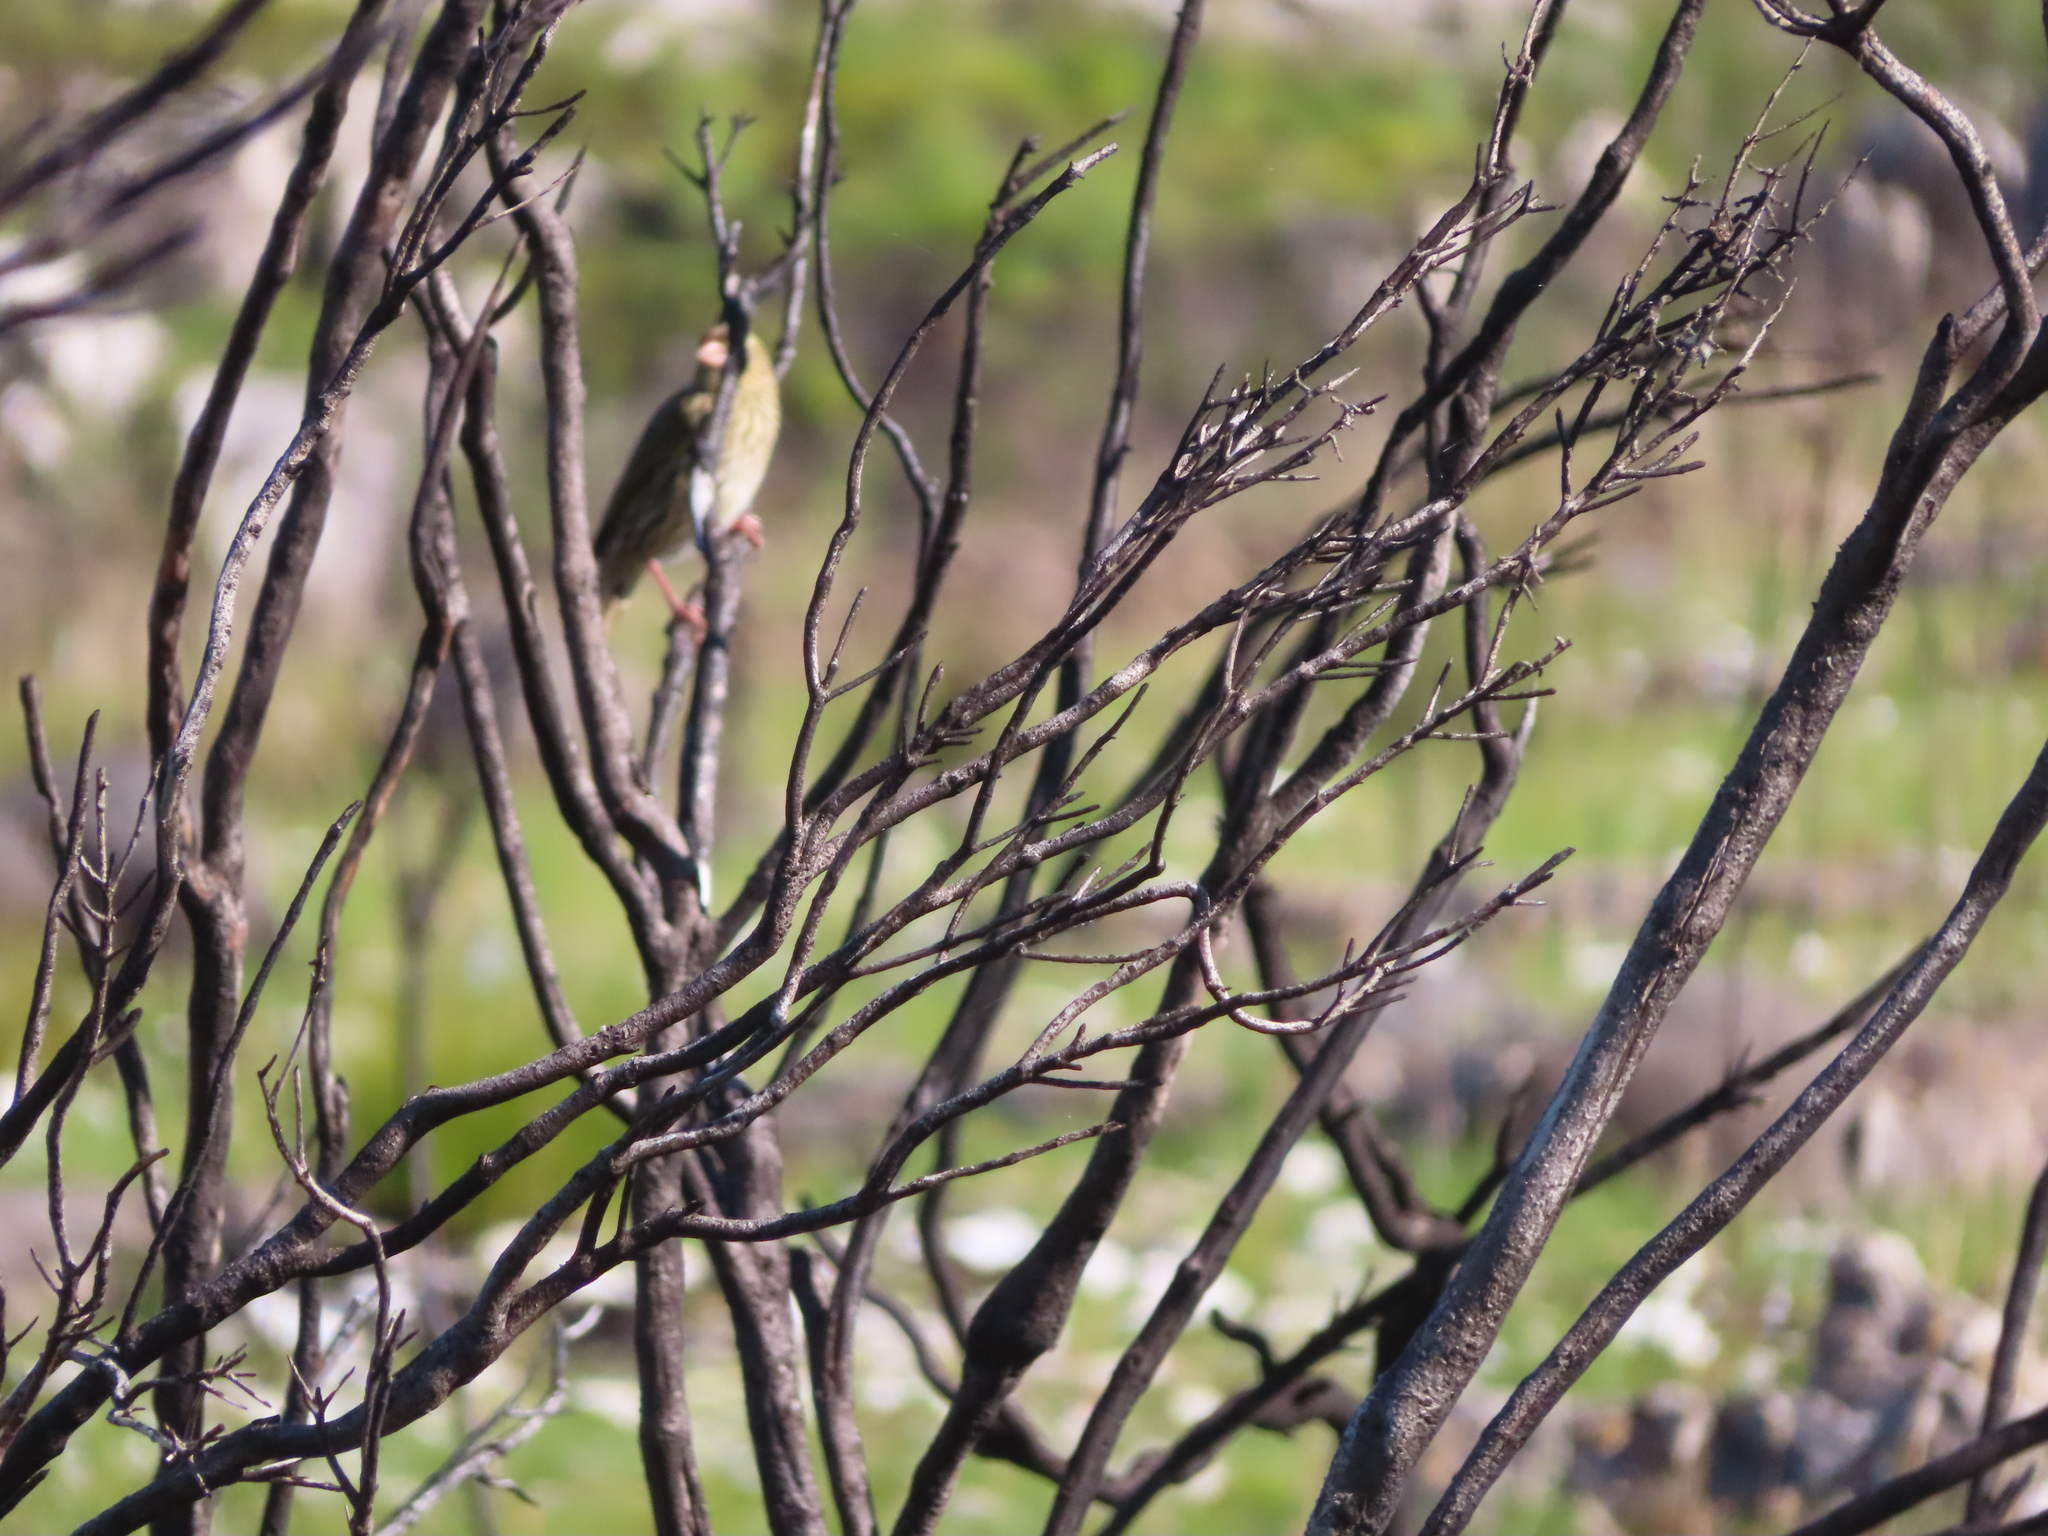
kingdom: Animalia
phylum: Chordata
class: Aves
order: Passeriformes
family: Ploceidae
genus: Euplectes
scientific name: Euplectes capensis
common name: Yellow bishop
